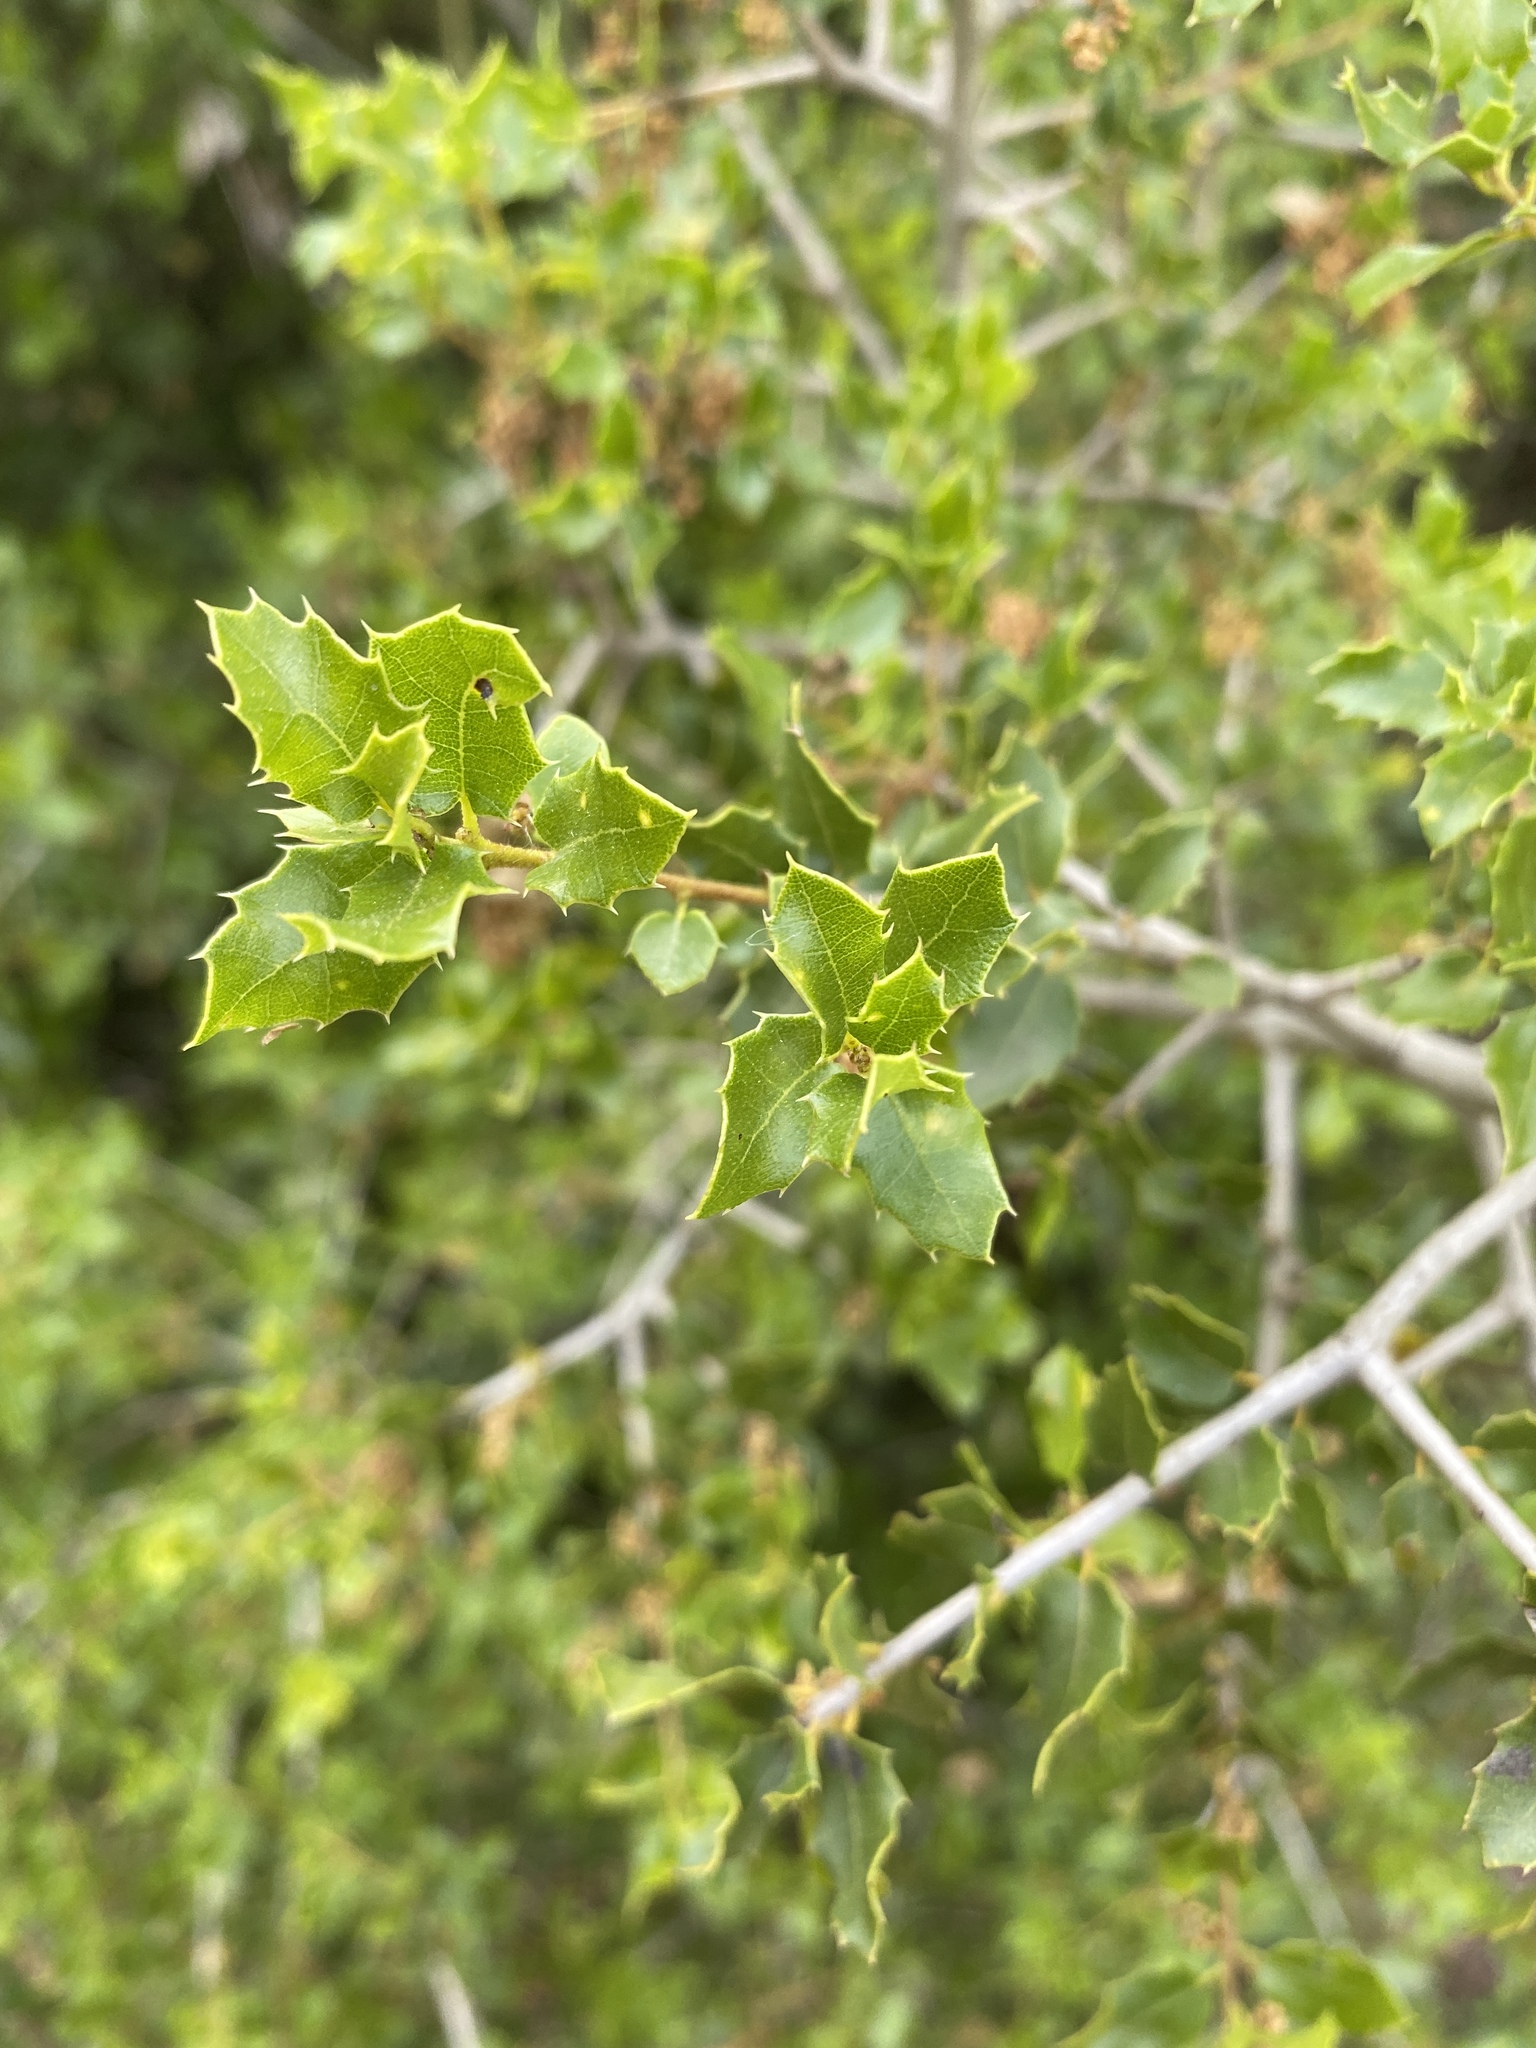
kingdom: Plantae
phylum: Tracheophyta
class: Magnoliopsida
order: Fagales
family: Fagaceae
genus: Quercus
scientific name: Quercus coccifera
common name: Kermes oak
